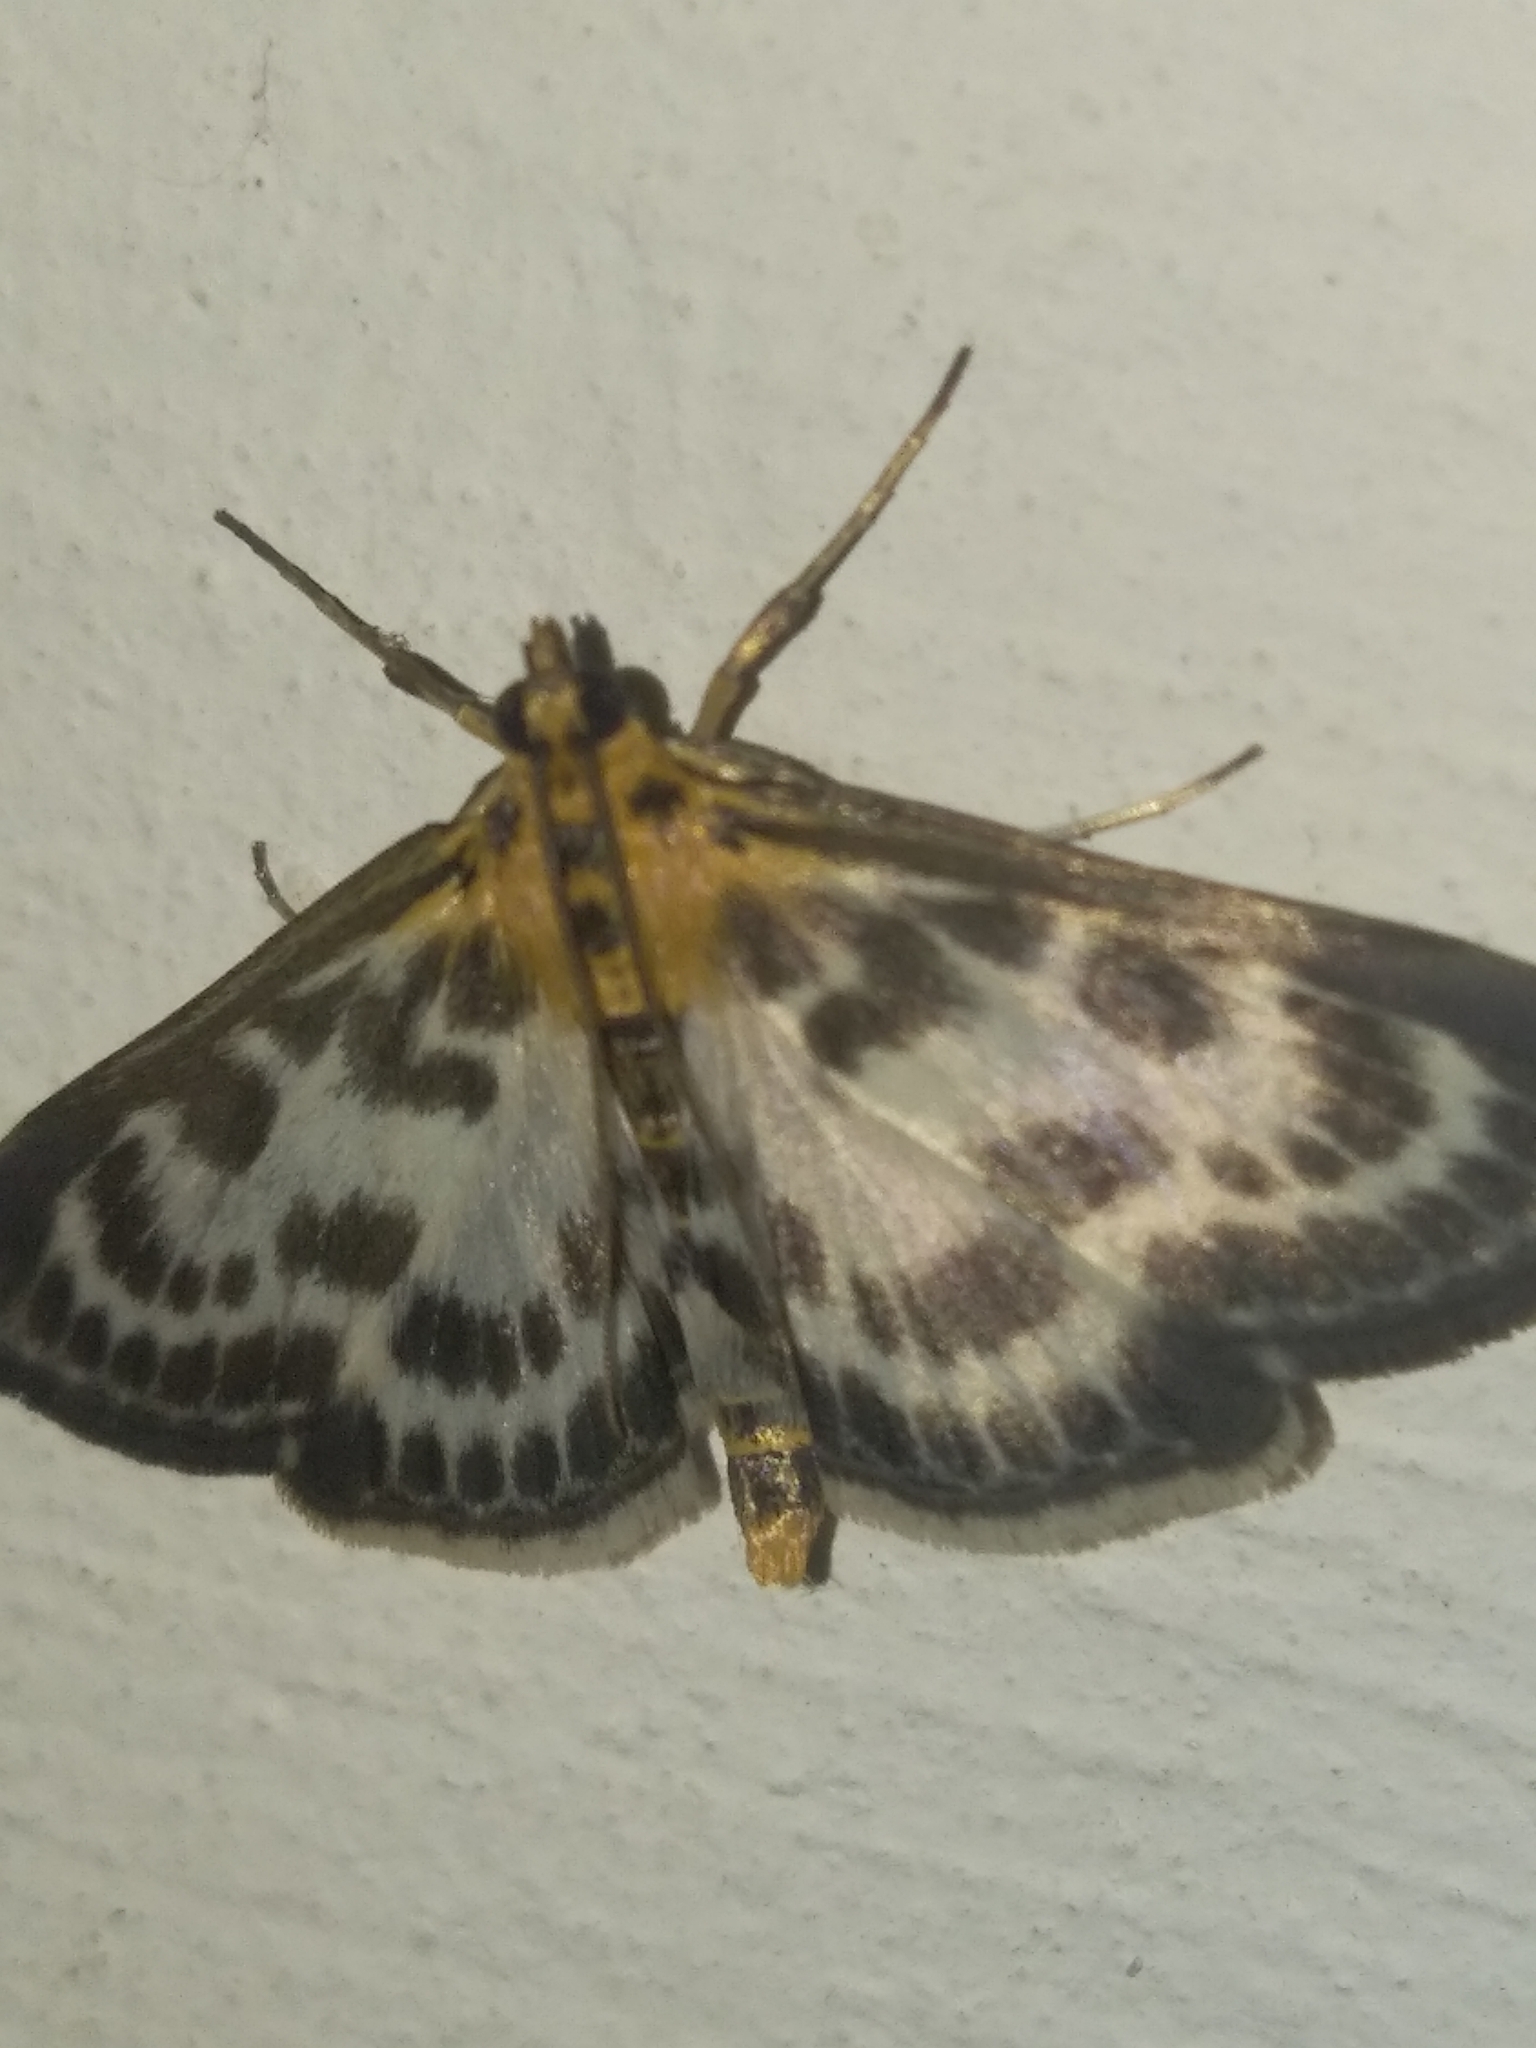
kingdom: Animalia
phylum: Arthropoda
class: Insecta
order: Lepidoptera
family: Crambidae
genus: Anania
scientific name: Anania hortulata
